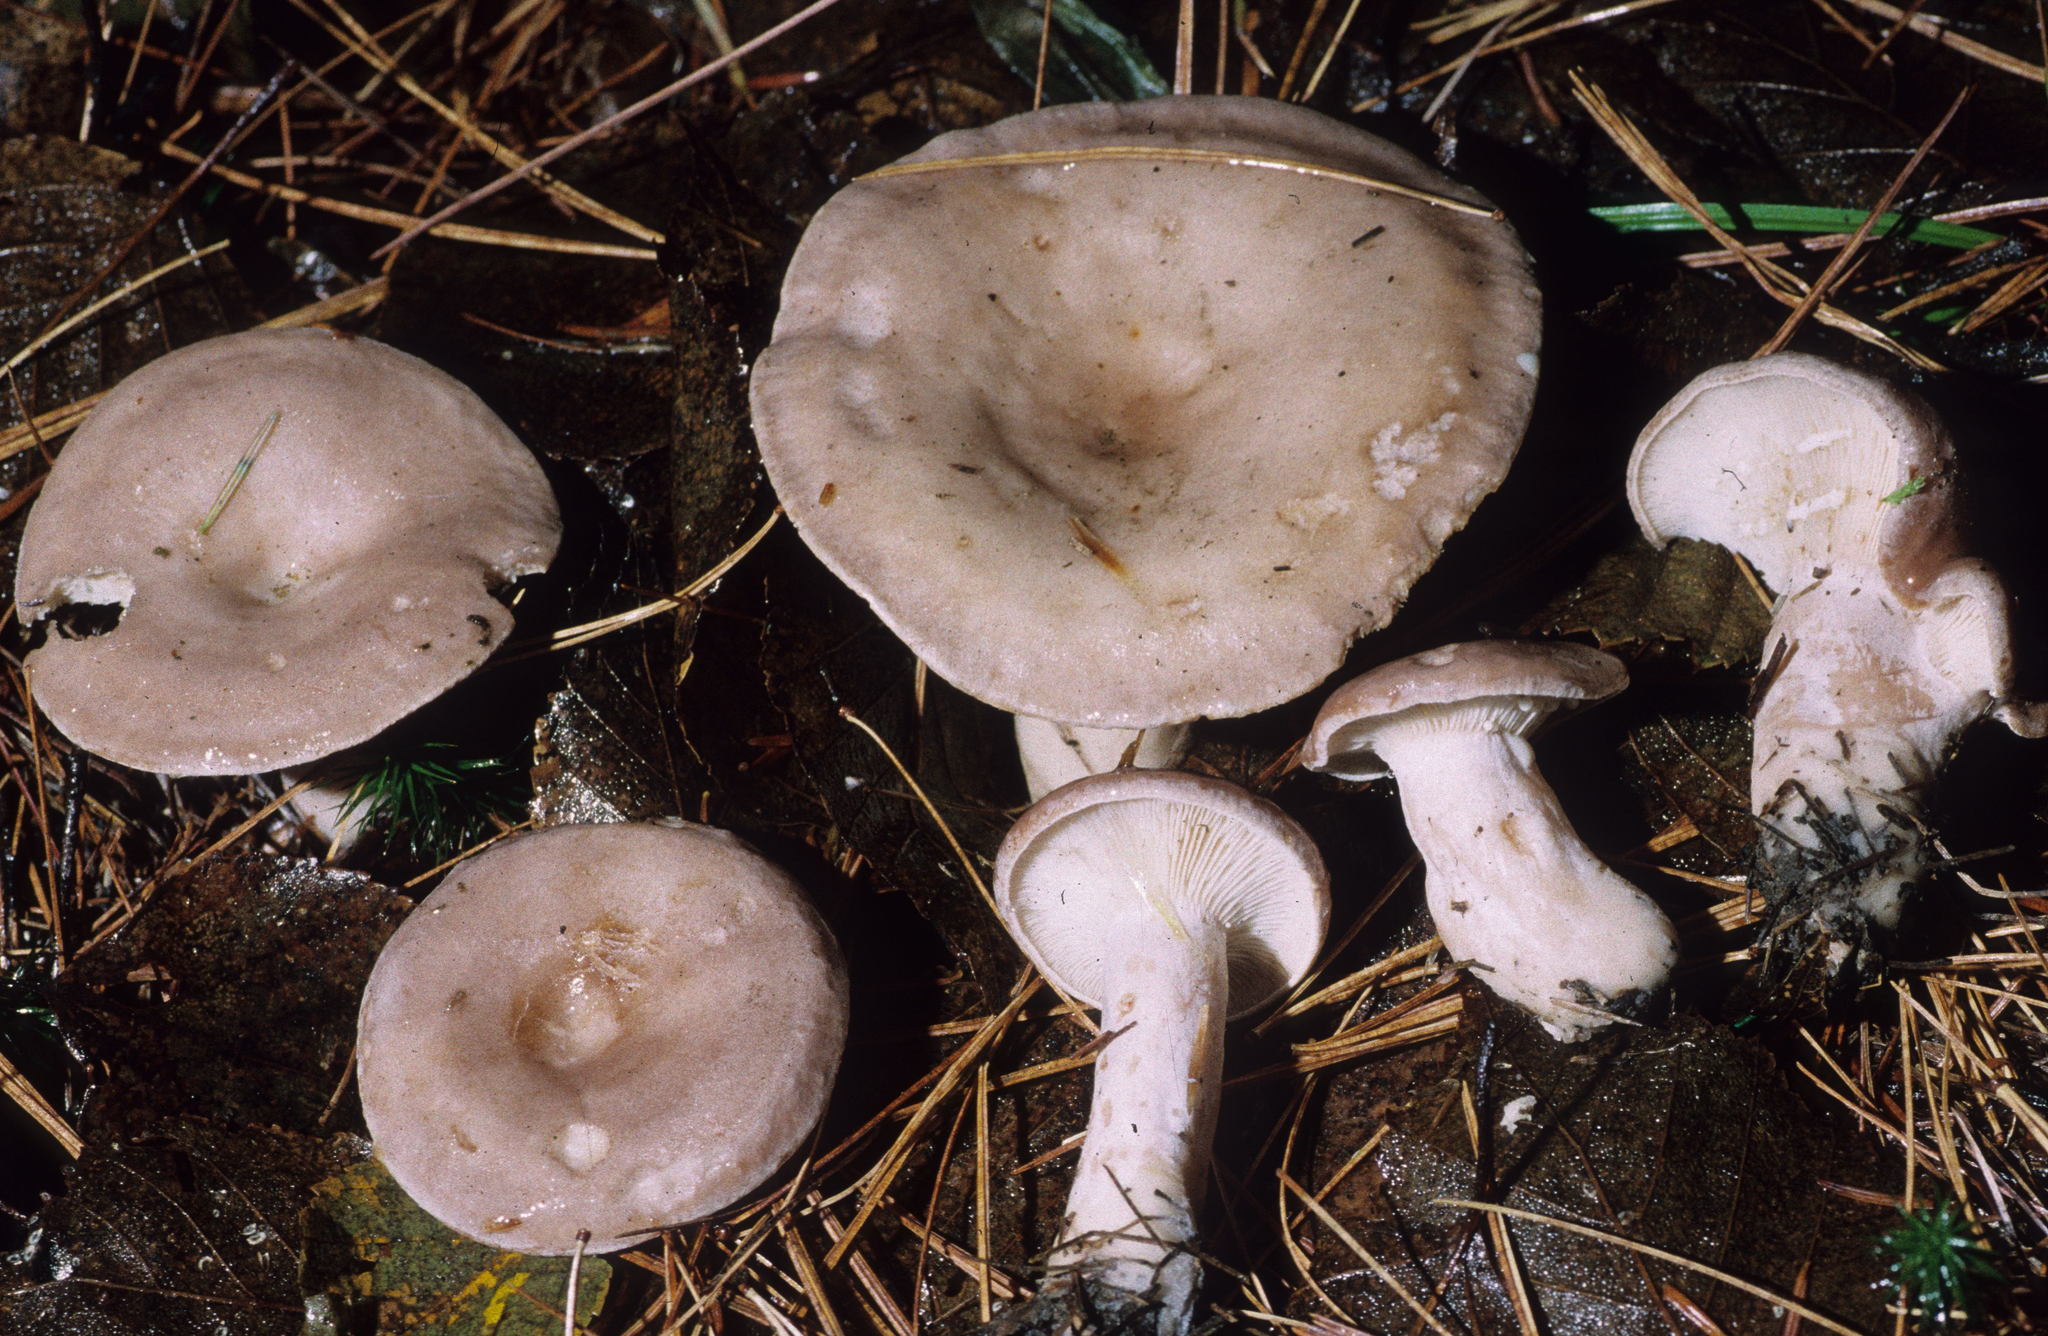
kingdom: Fungi
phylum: Basidiomycota
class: Agaricomycetes
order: Russulales
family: Russulaceae
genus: Lactarius
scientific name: Lactarius uvidus
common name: Shiner milkcap
